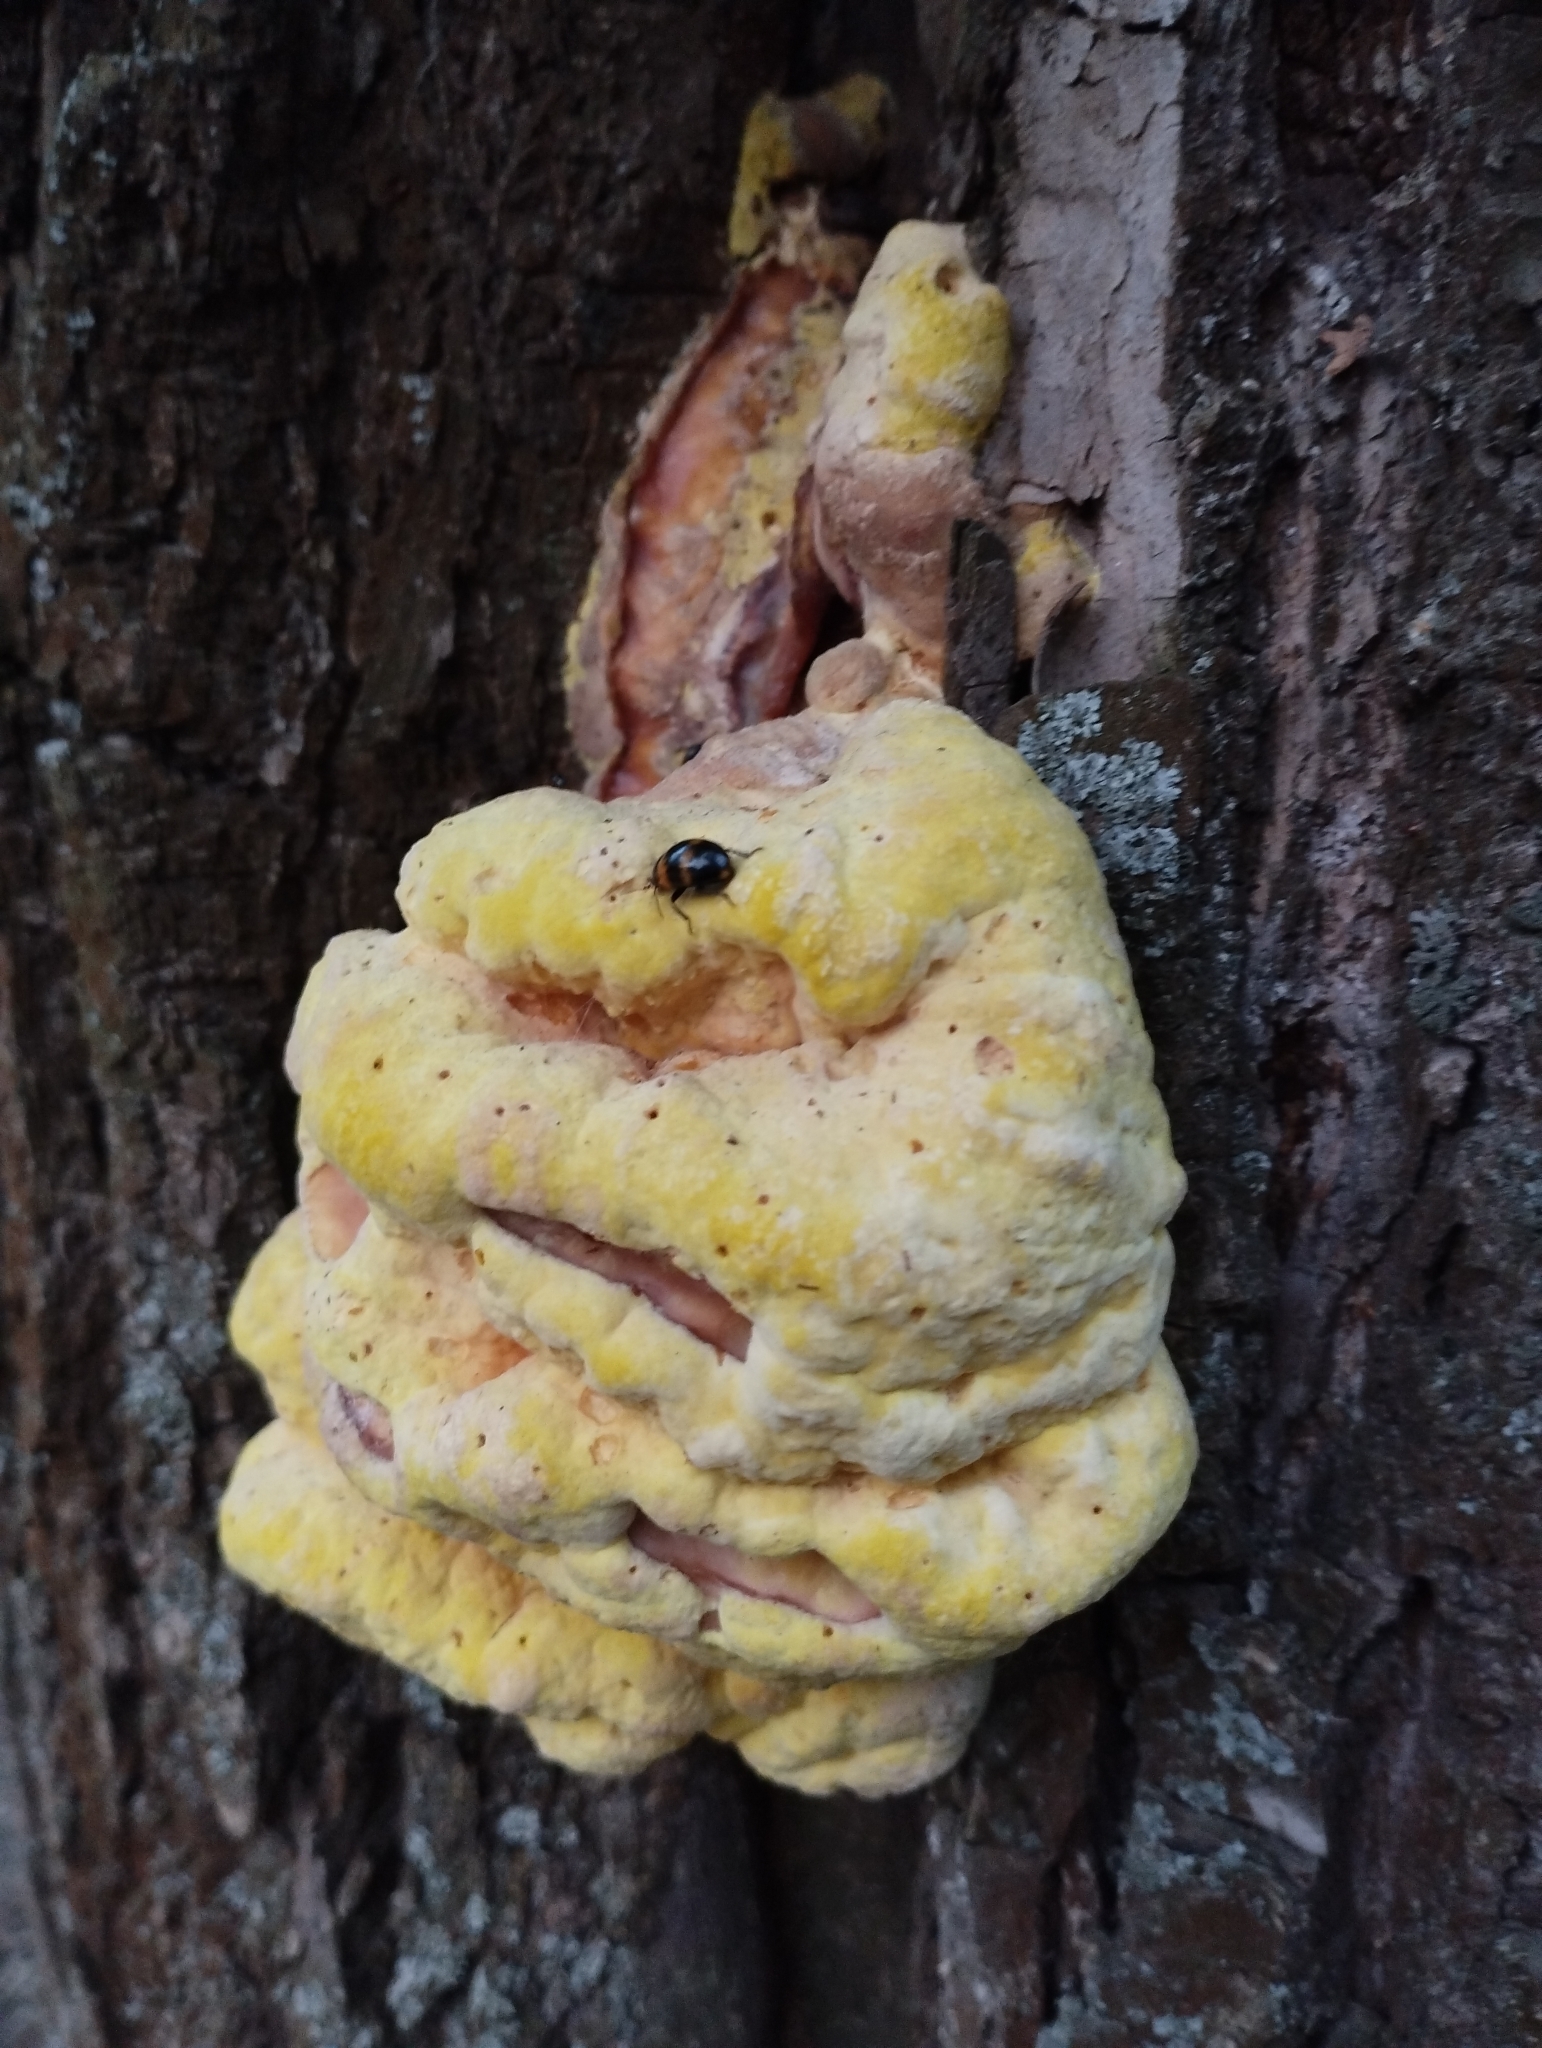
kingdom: Fungi
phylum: Basidiomycota
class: Agaricomycetes
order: Polyporales
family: Laetiporaceae
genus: Laetiporus
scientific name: Laetiporus sulphureus
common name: Chicken of the woods
